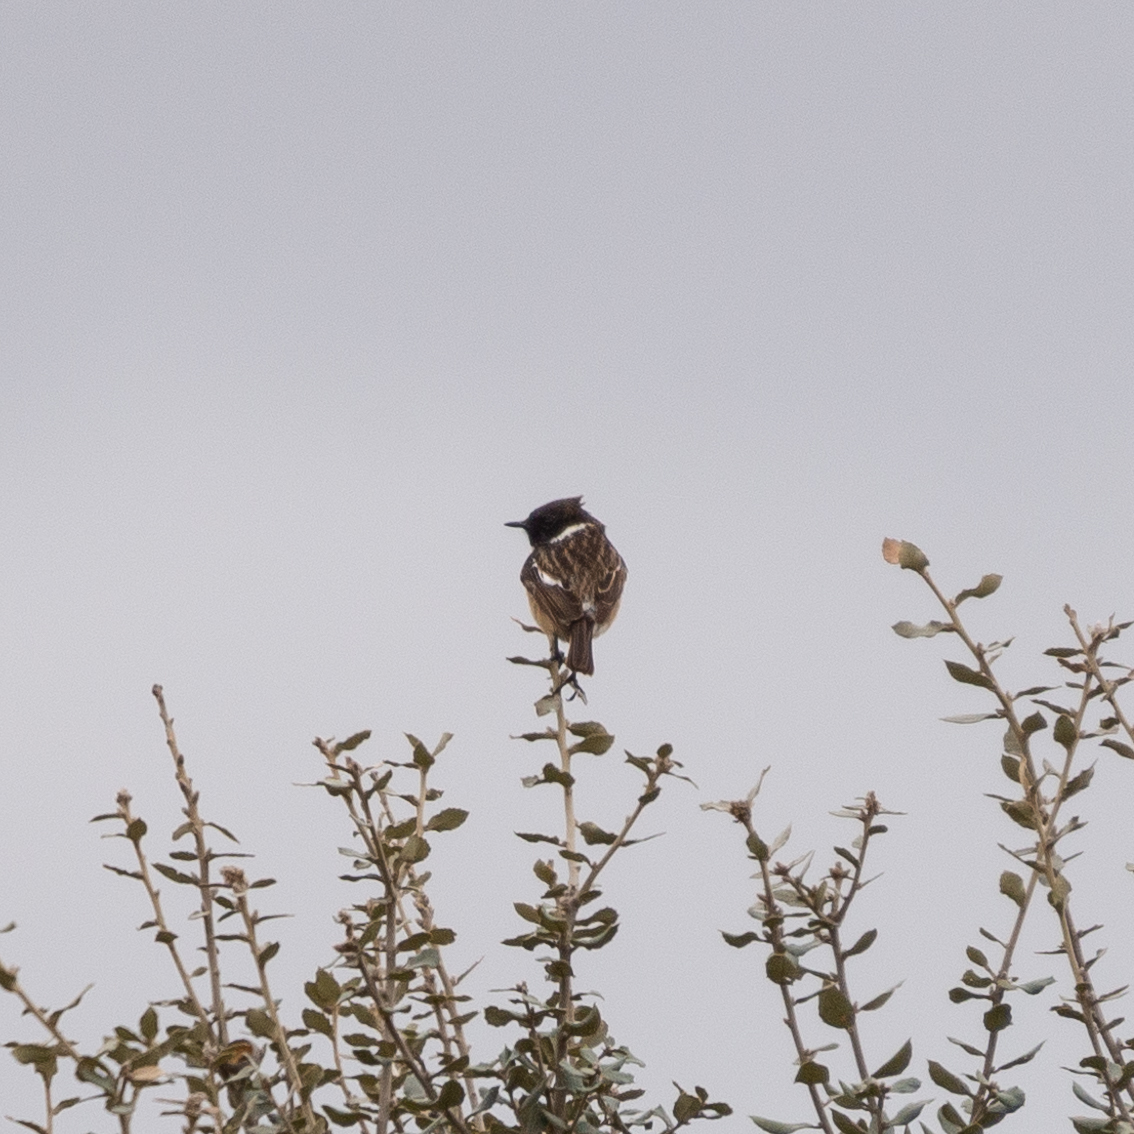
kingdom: Animalia
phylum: Chordata
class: Aves
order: Passeriformes
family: Muscicapidae
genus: Saxicola
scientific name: Saxicola rubicola
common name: European stonechat
